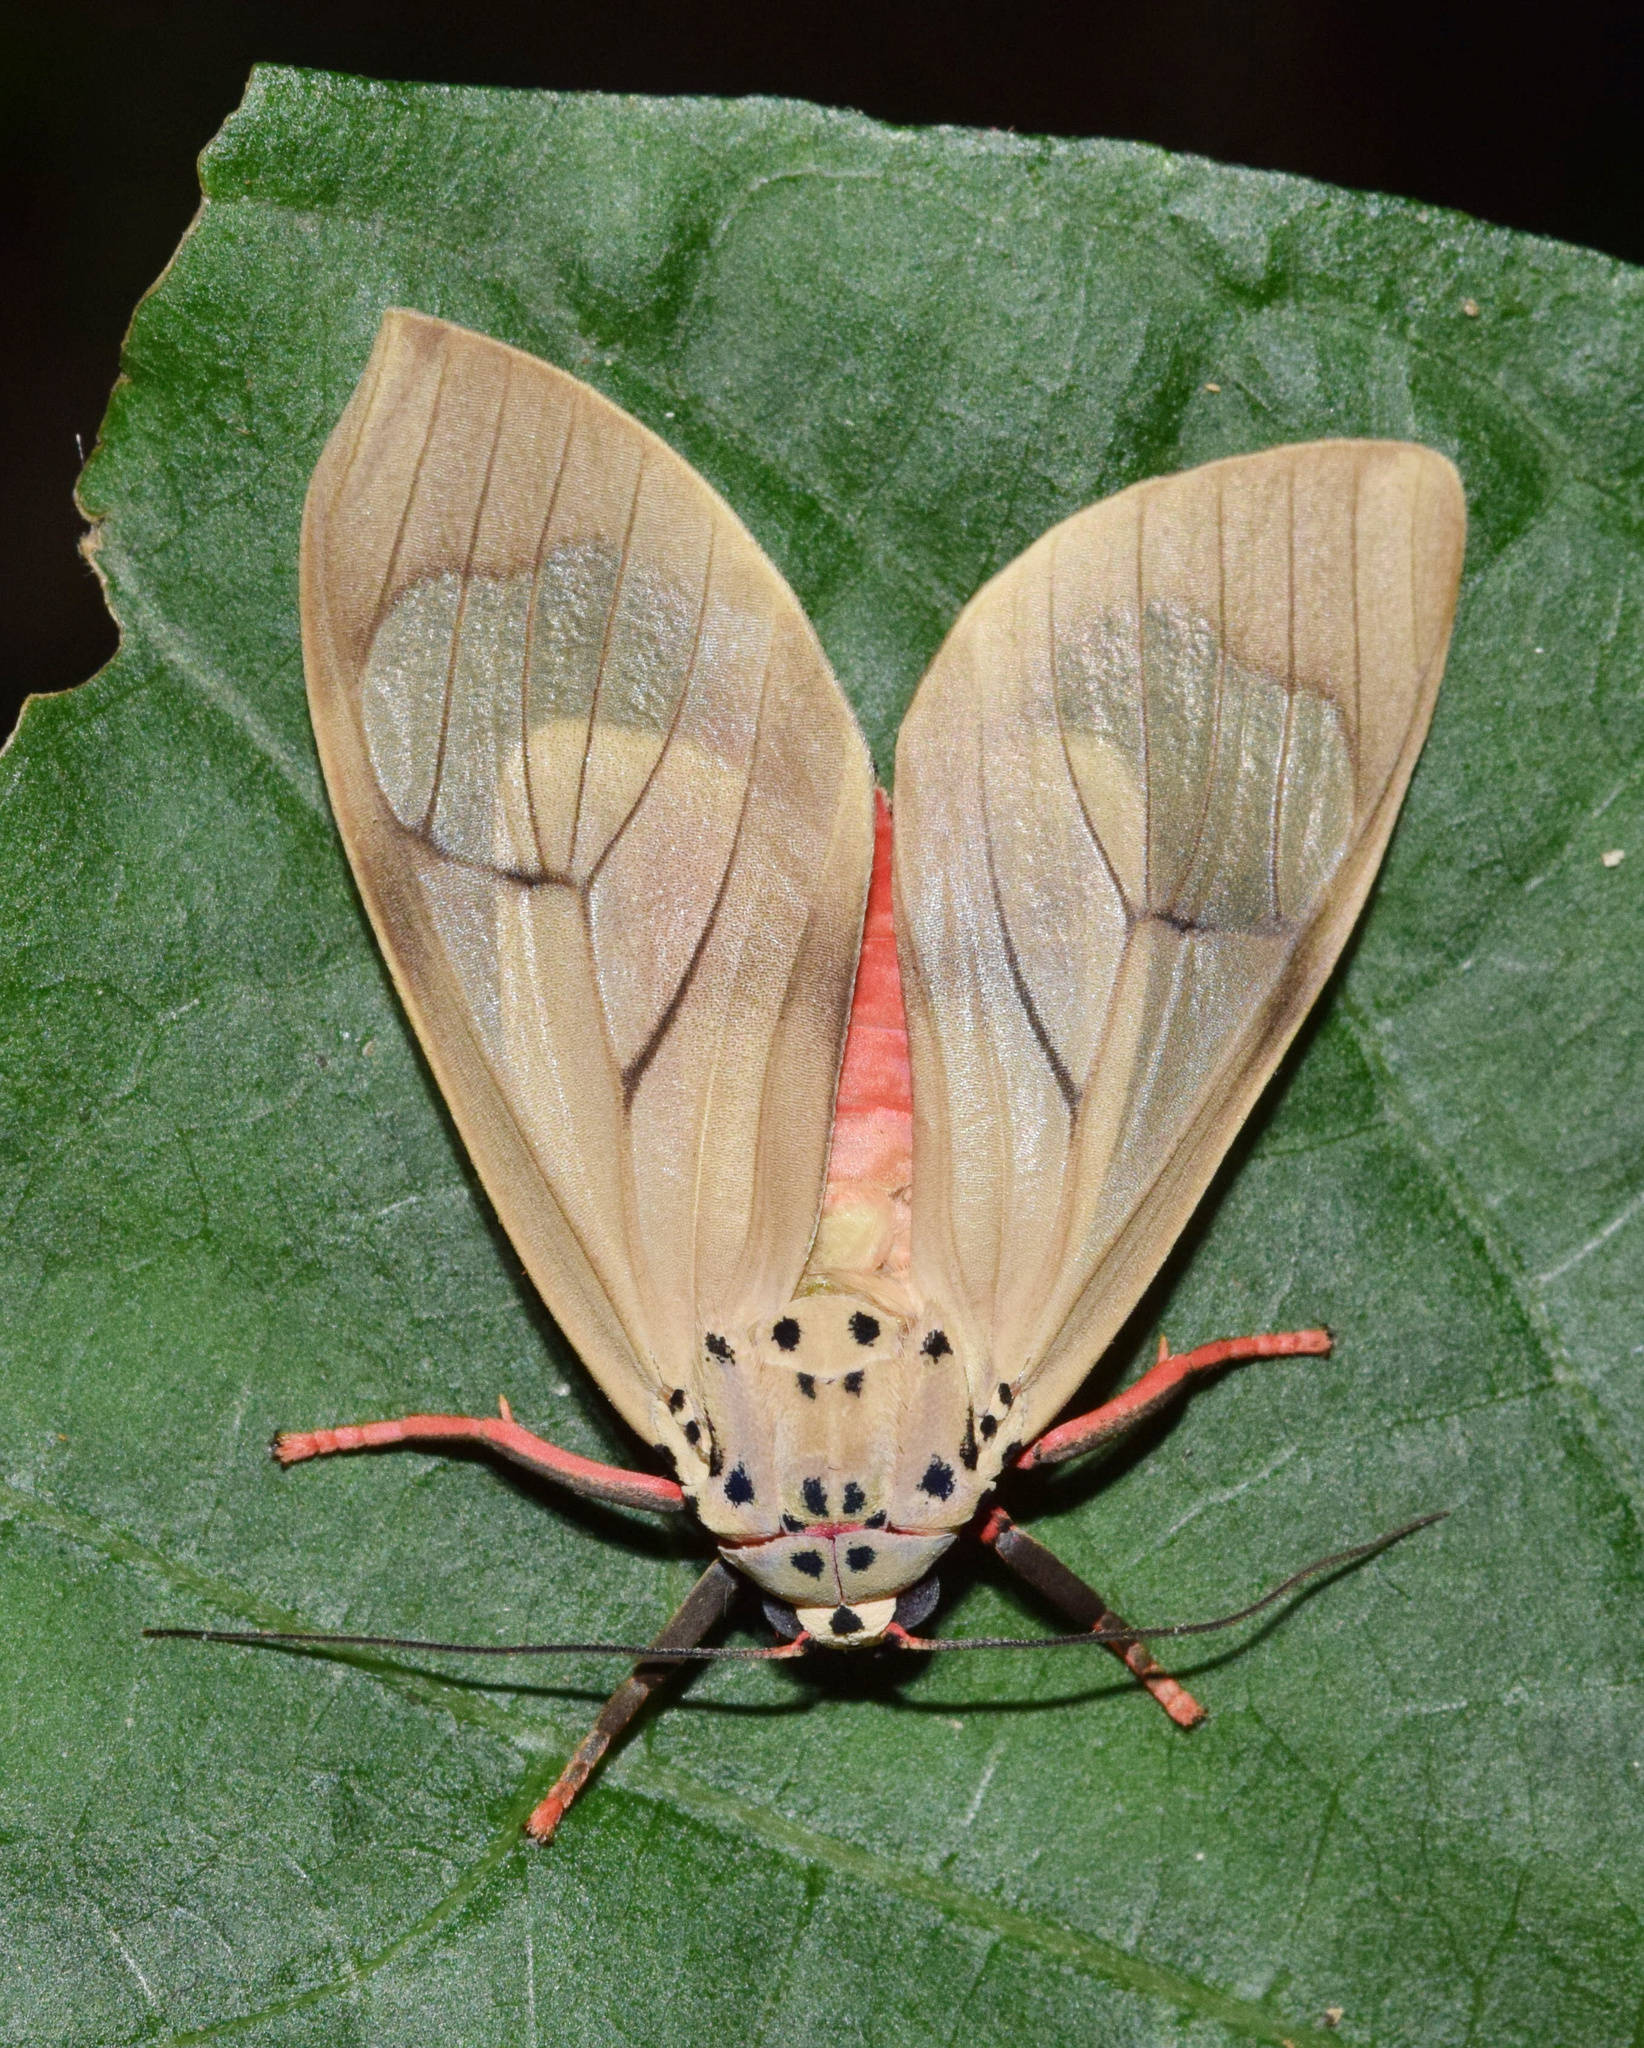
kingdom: Animalia
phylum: Arthropoda
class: Insecta
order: Lepidoptera
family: Erebidae
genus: Amerila
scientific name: Amerila affinis
